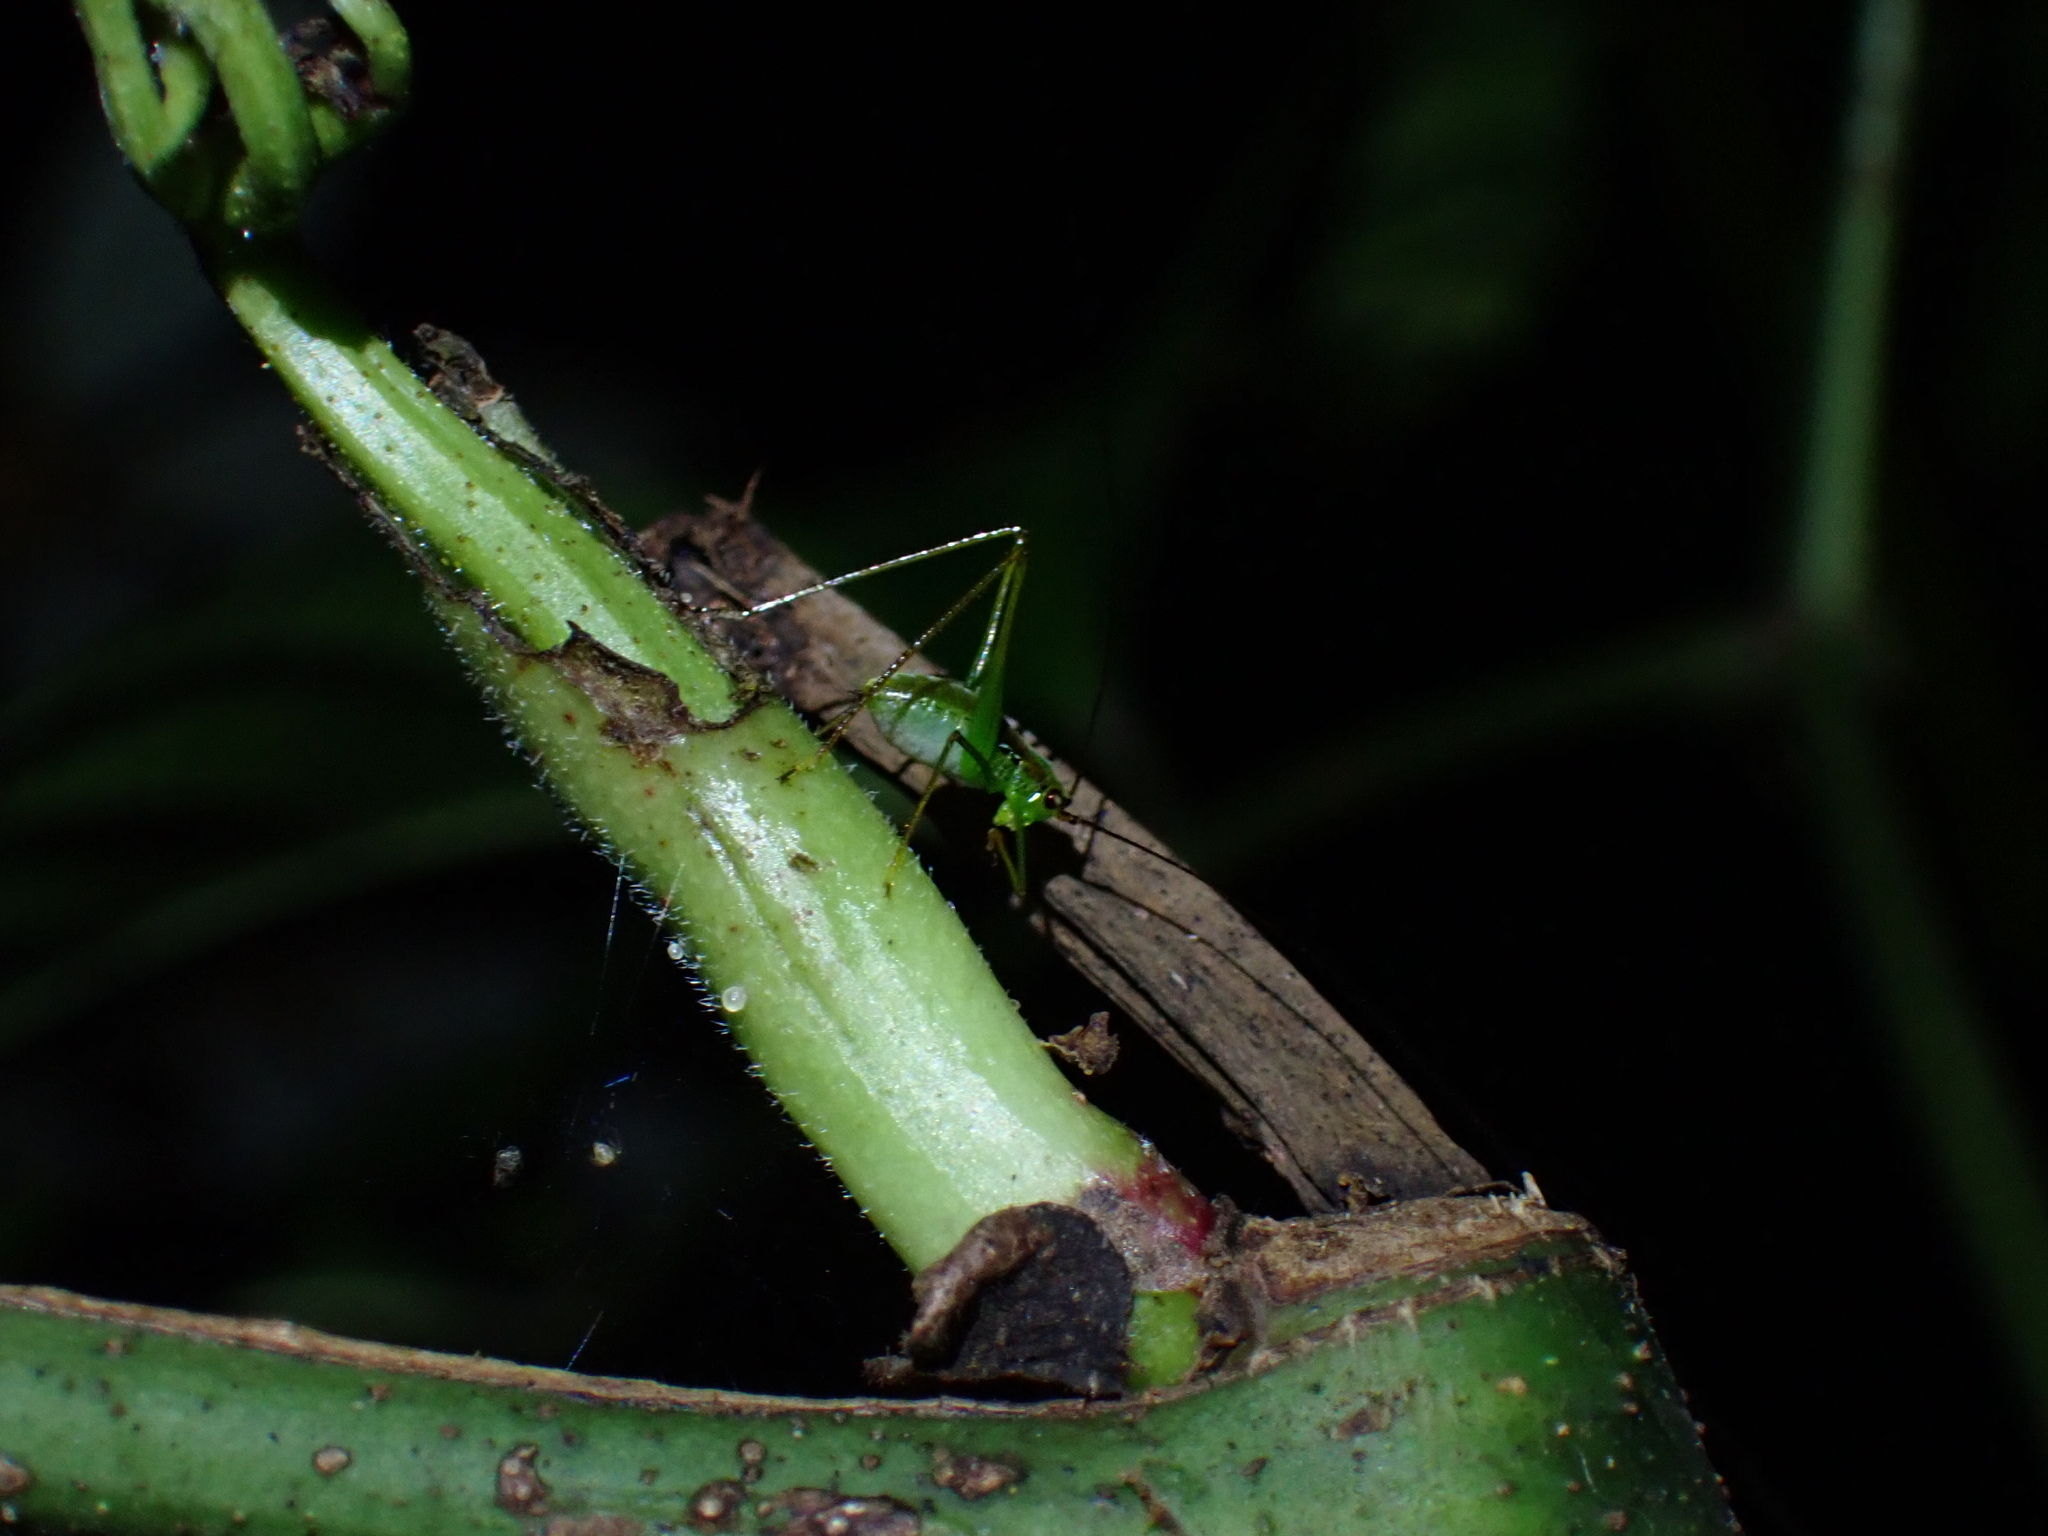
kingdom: Animalia
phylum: Arthropoda
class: Insecta
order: Orthoptera
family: Tettigoniidae
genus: Kurandoptera
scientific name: Kurandoptera purpura
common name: Purple-winged katydid
